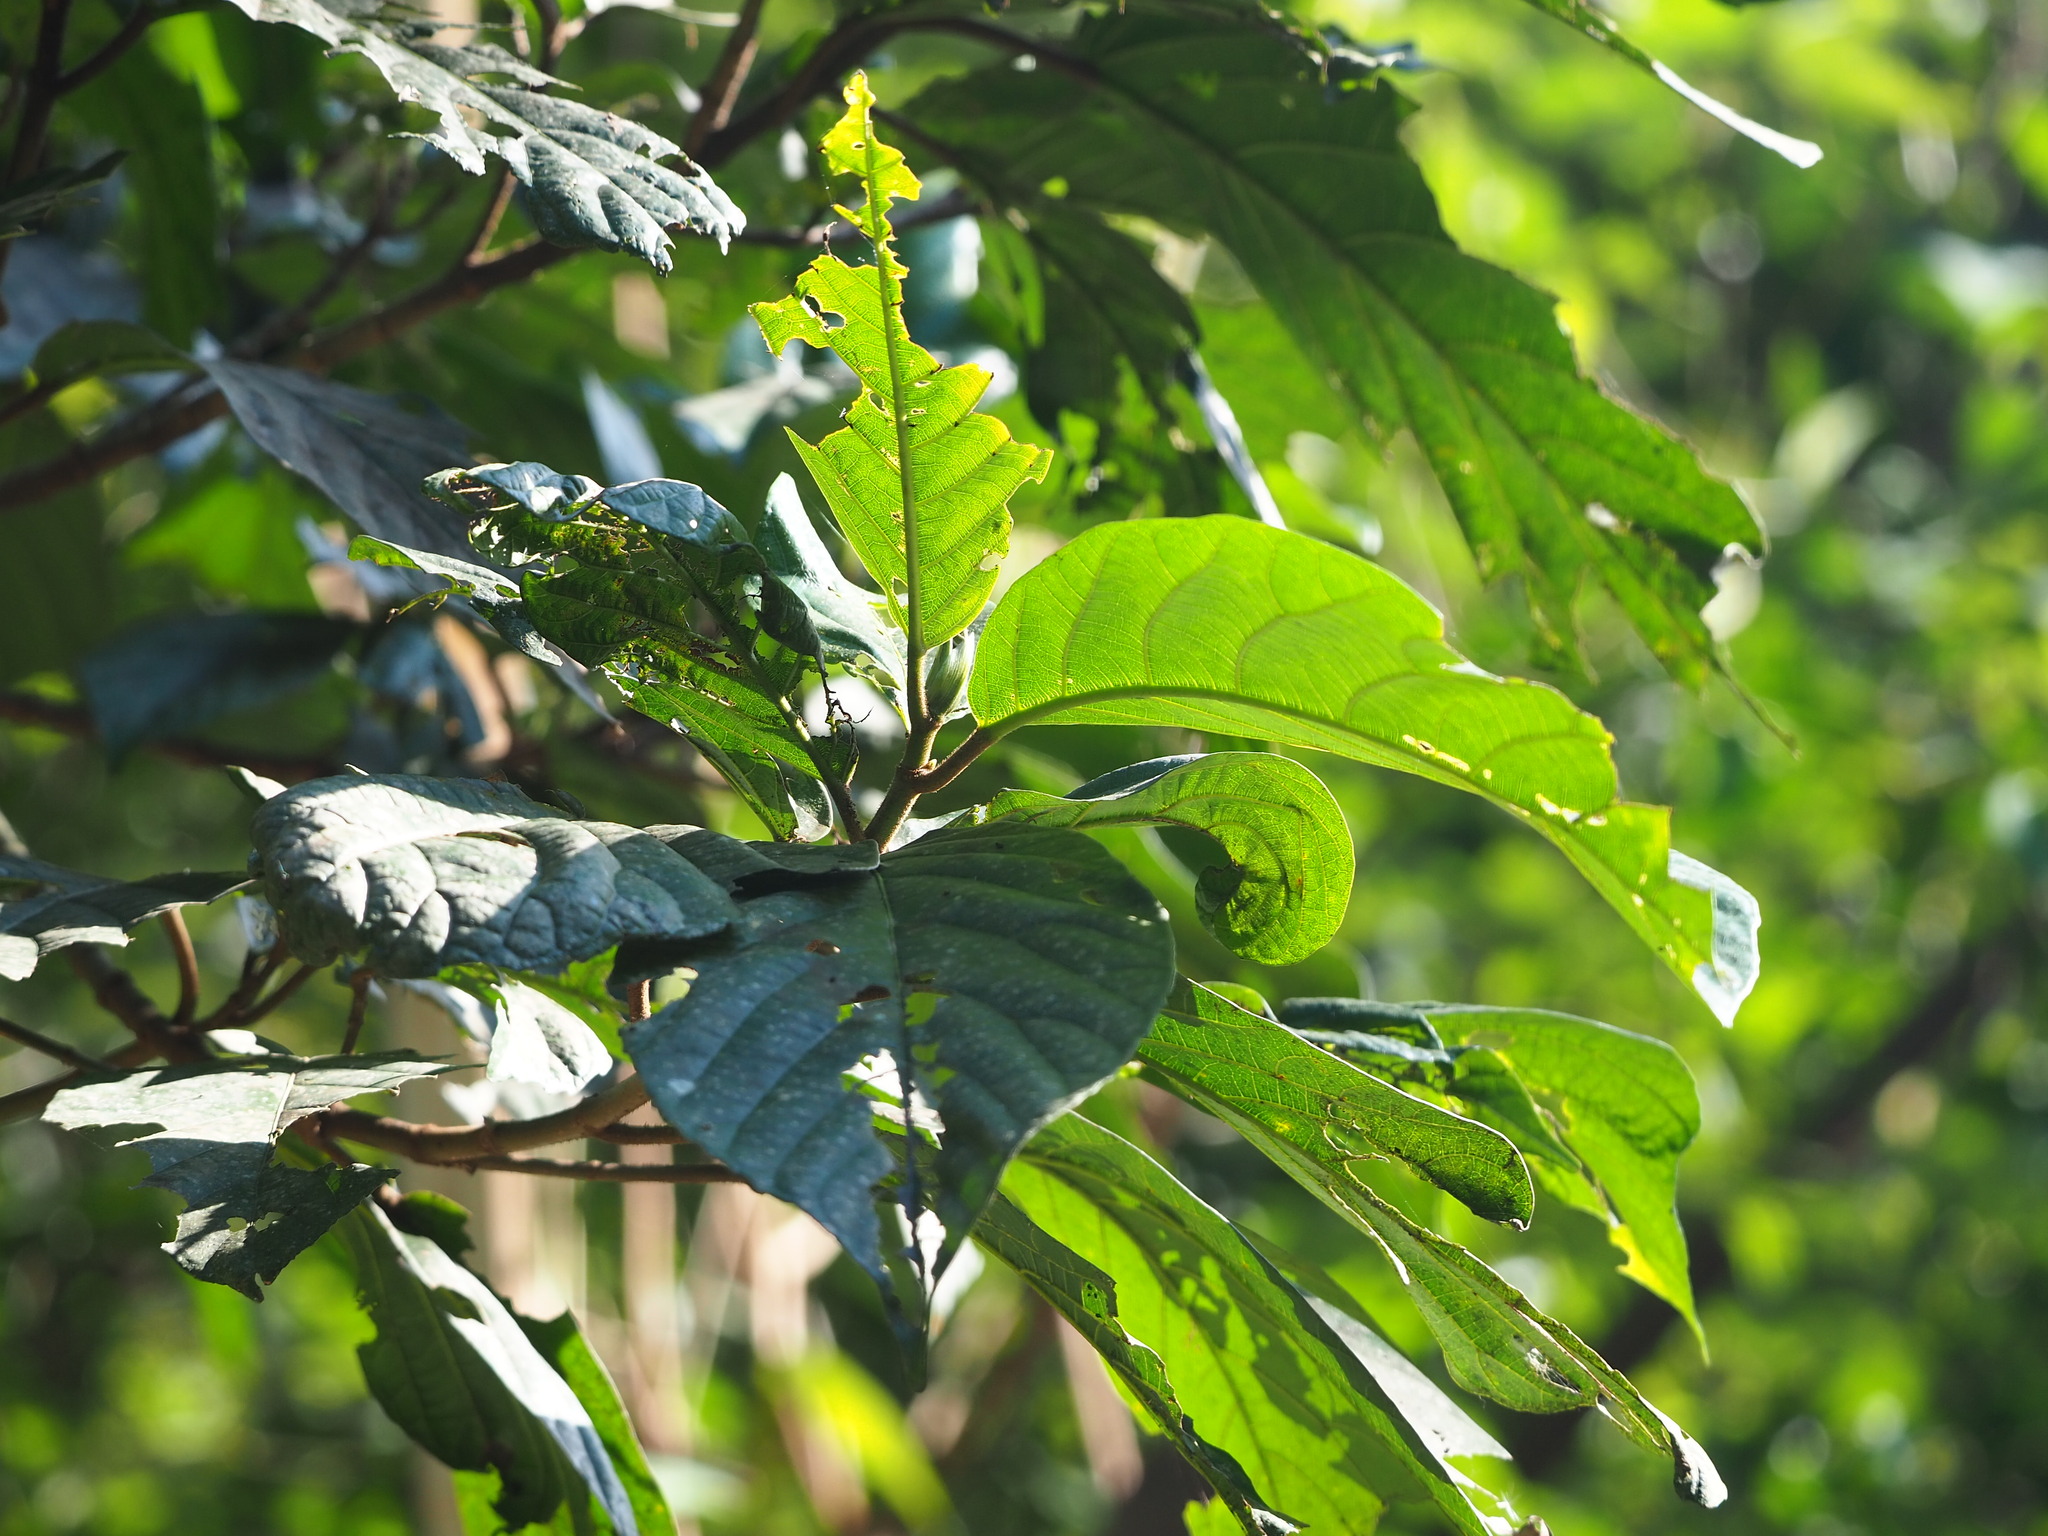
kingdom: Plantae
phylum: Tracheophyta
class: Magnoliopsida
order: Rosales
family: Moraceae
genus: Ficus
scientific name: Ficus benguetensis
